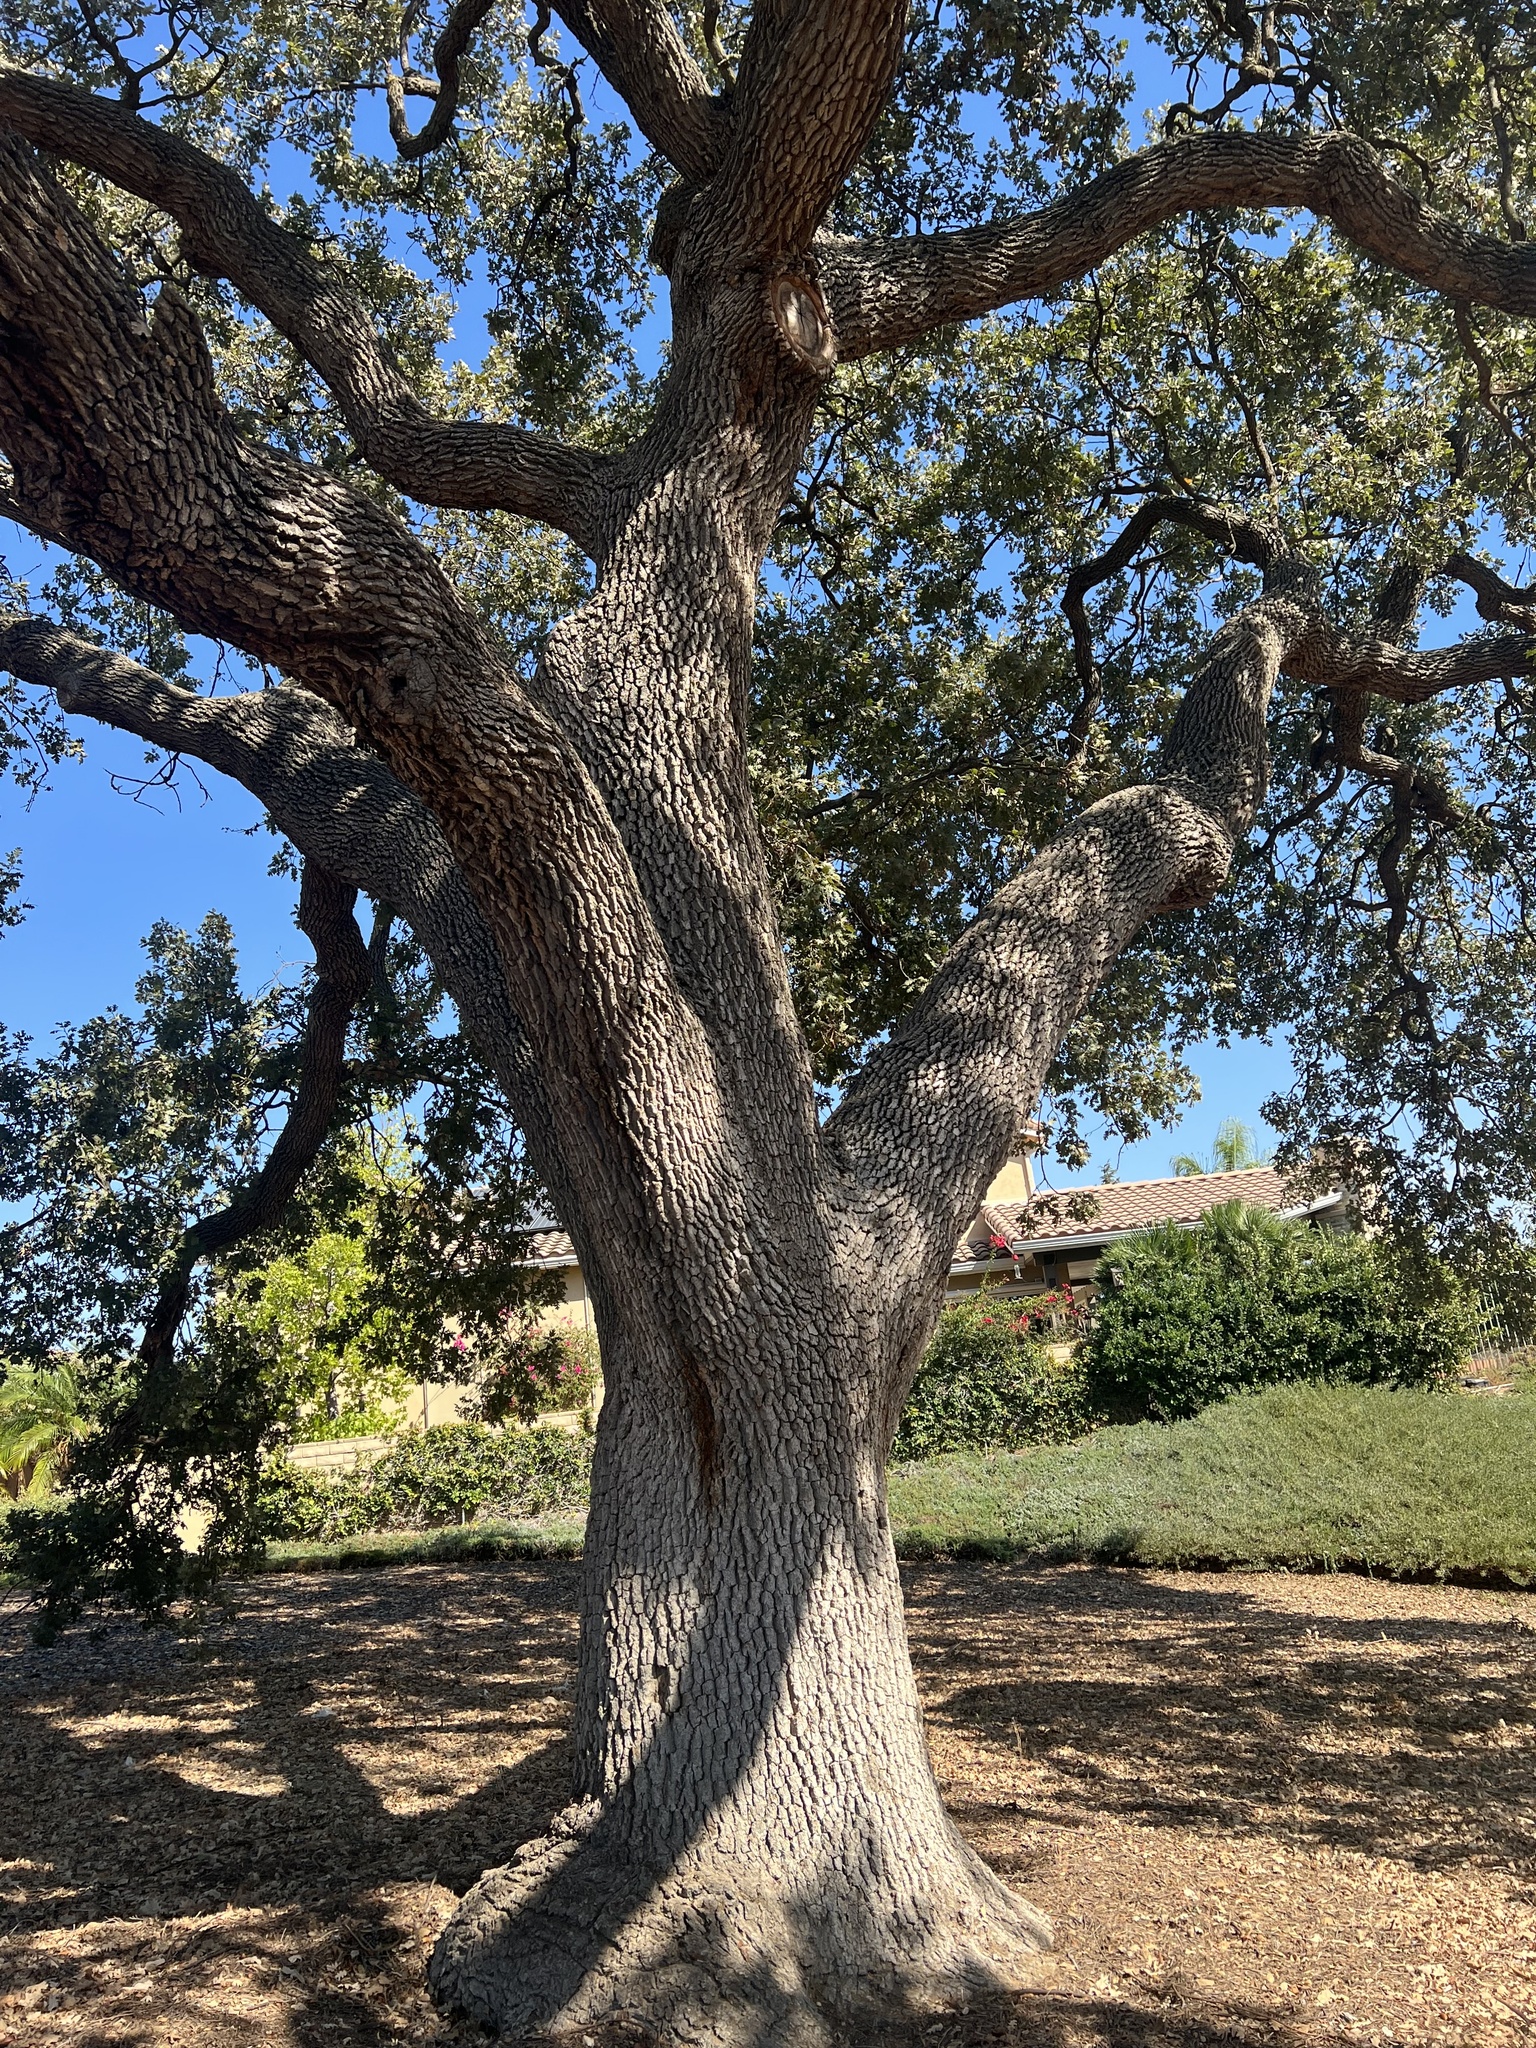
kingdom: Plantae
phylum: Tracheophyta
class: Magnoliopsida
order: Fagales
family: Fagaceae
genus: Quercus
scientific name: Quercus lobata
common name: Valley oak
